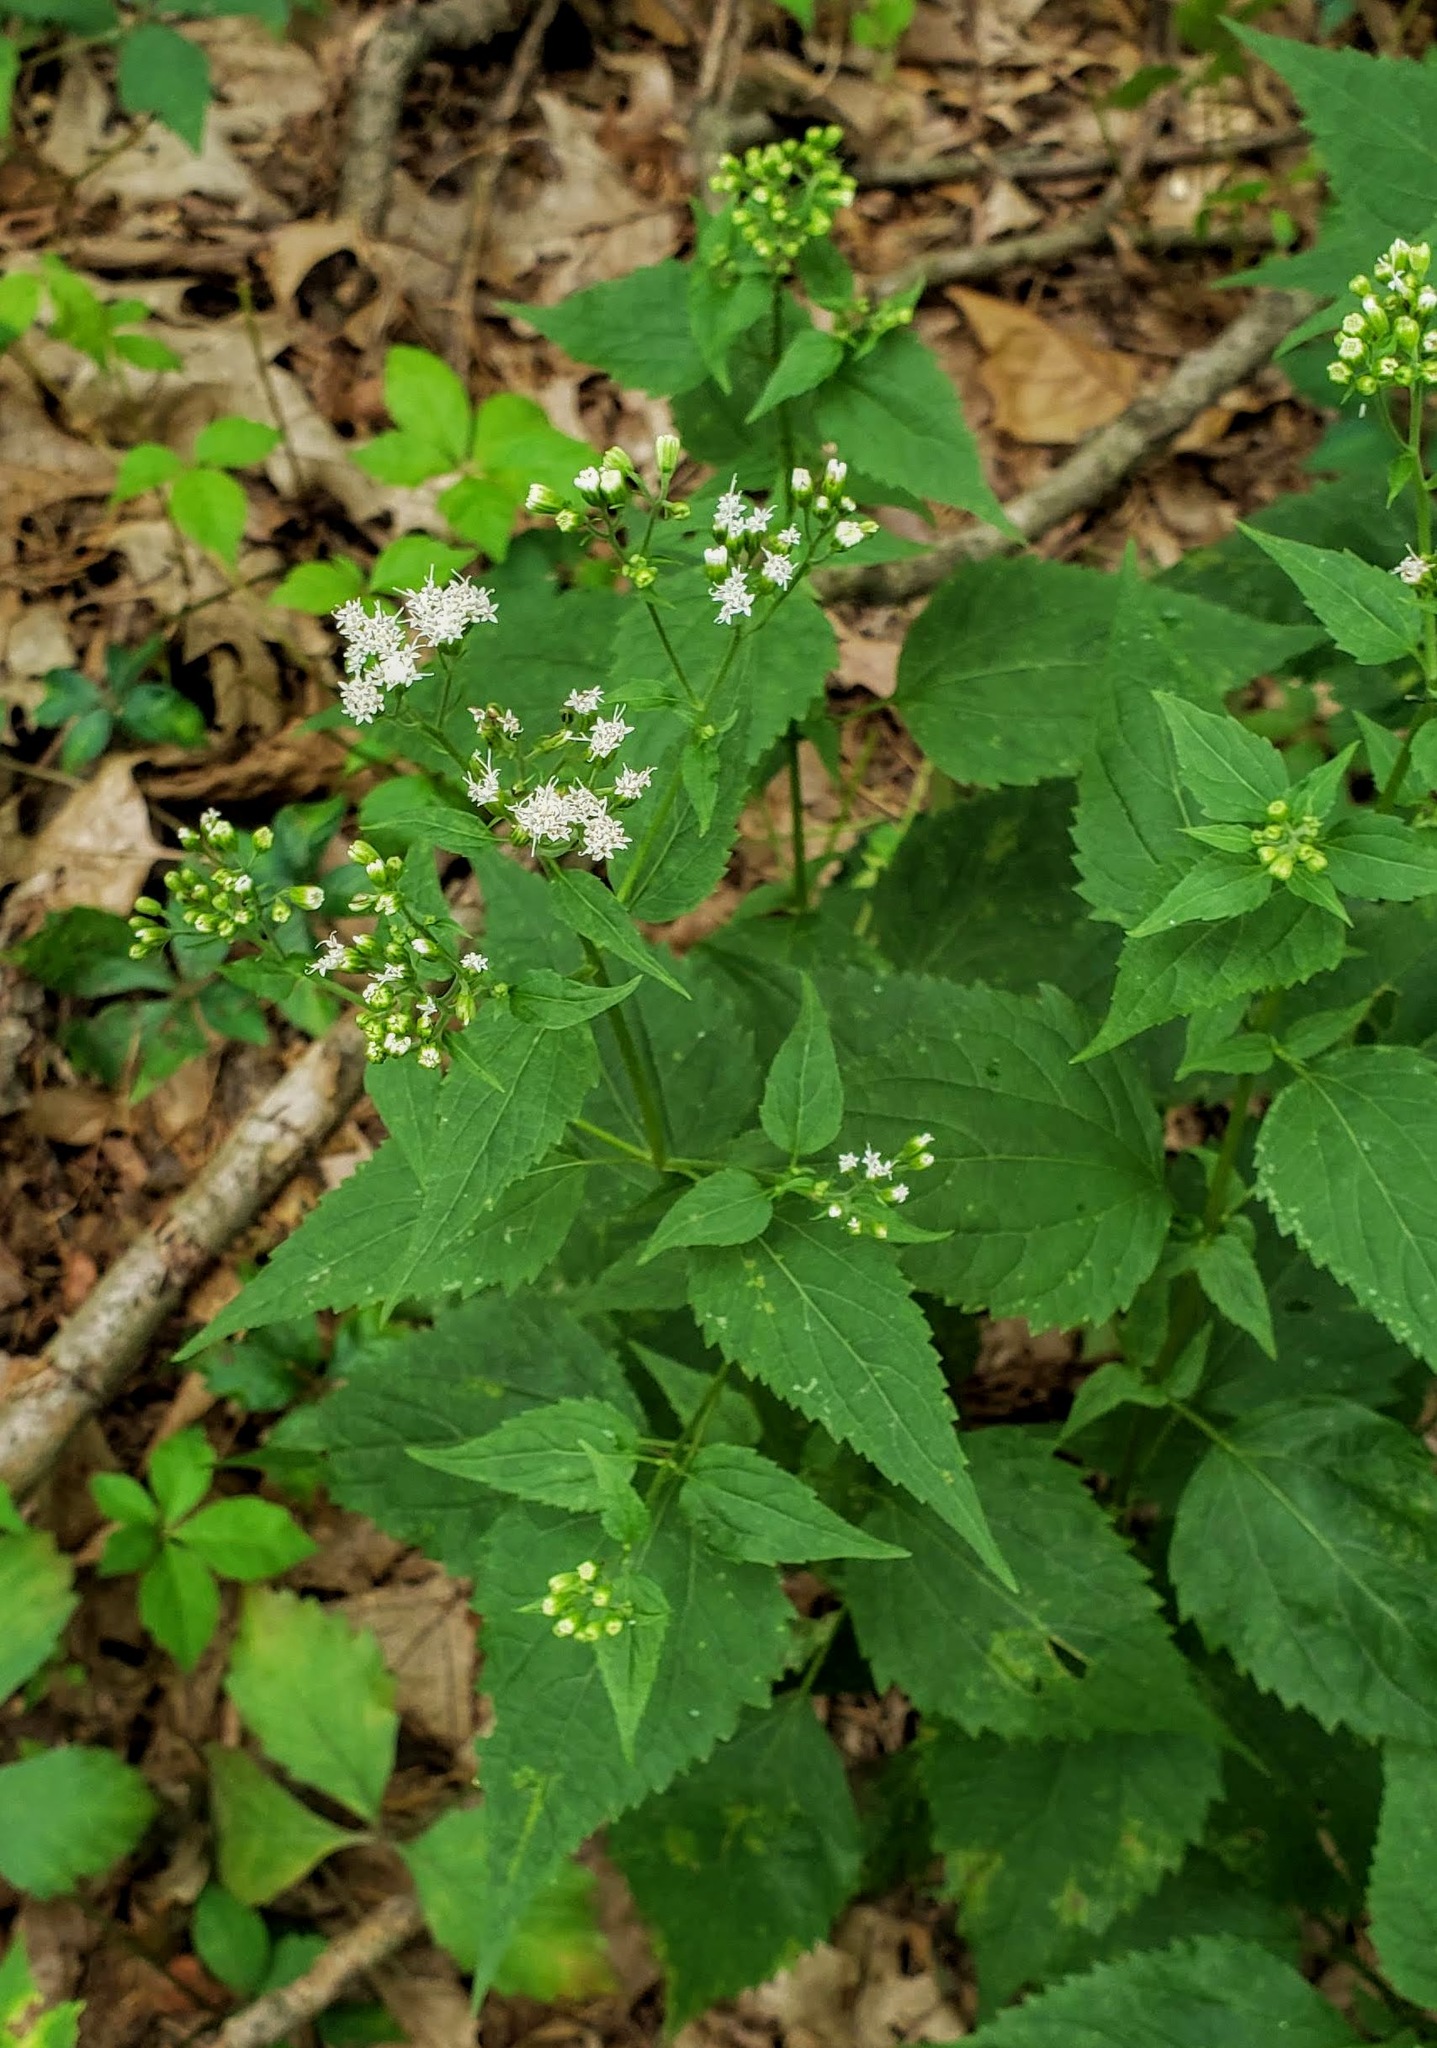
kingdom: Plantae
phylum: Tracheophyta
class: Magnoliopsida
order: Asterales
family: Asteraceae
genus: Ageratina
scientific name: Ageratina altissima
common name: White snakeroot
